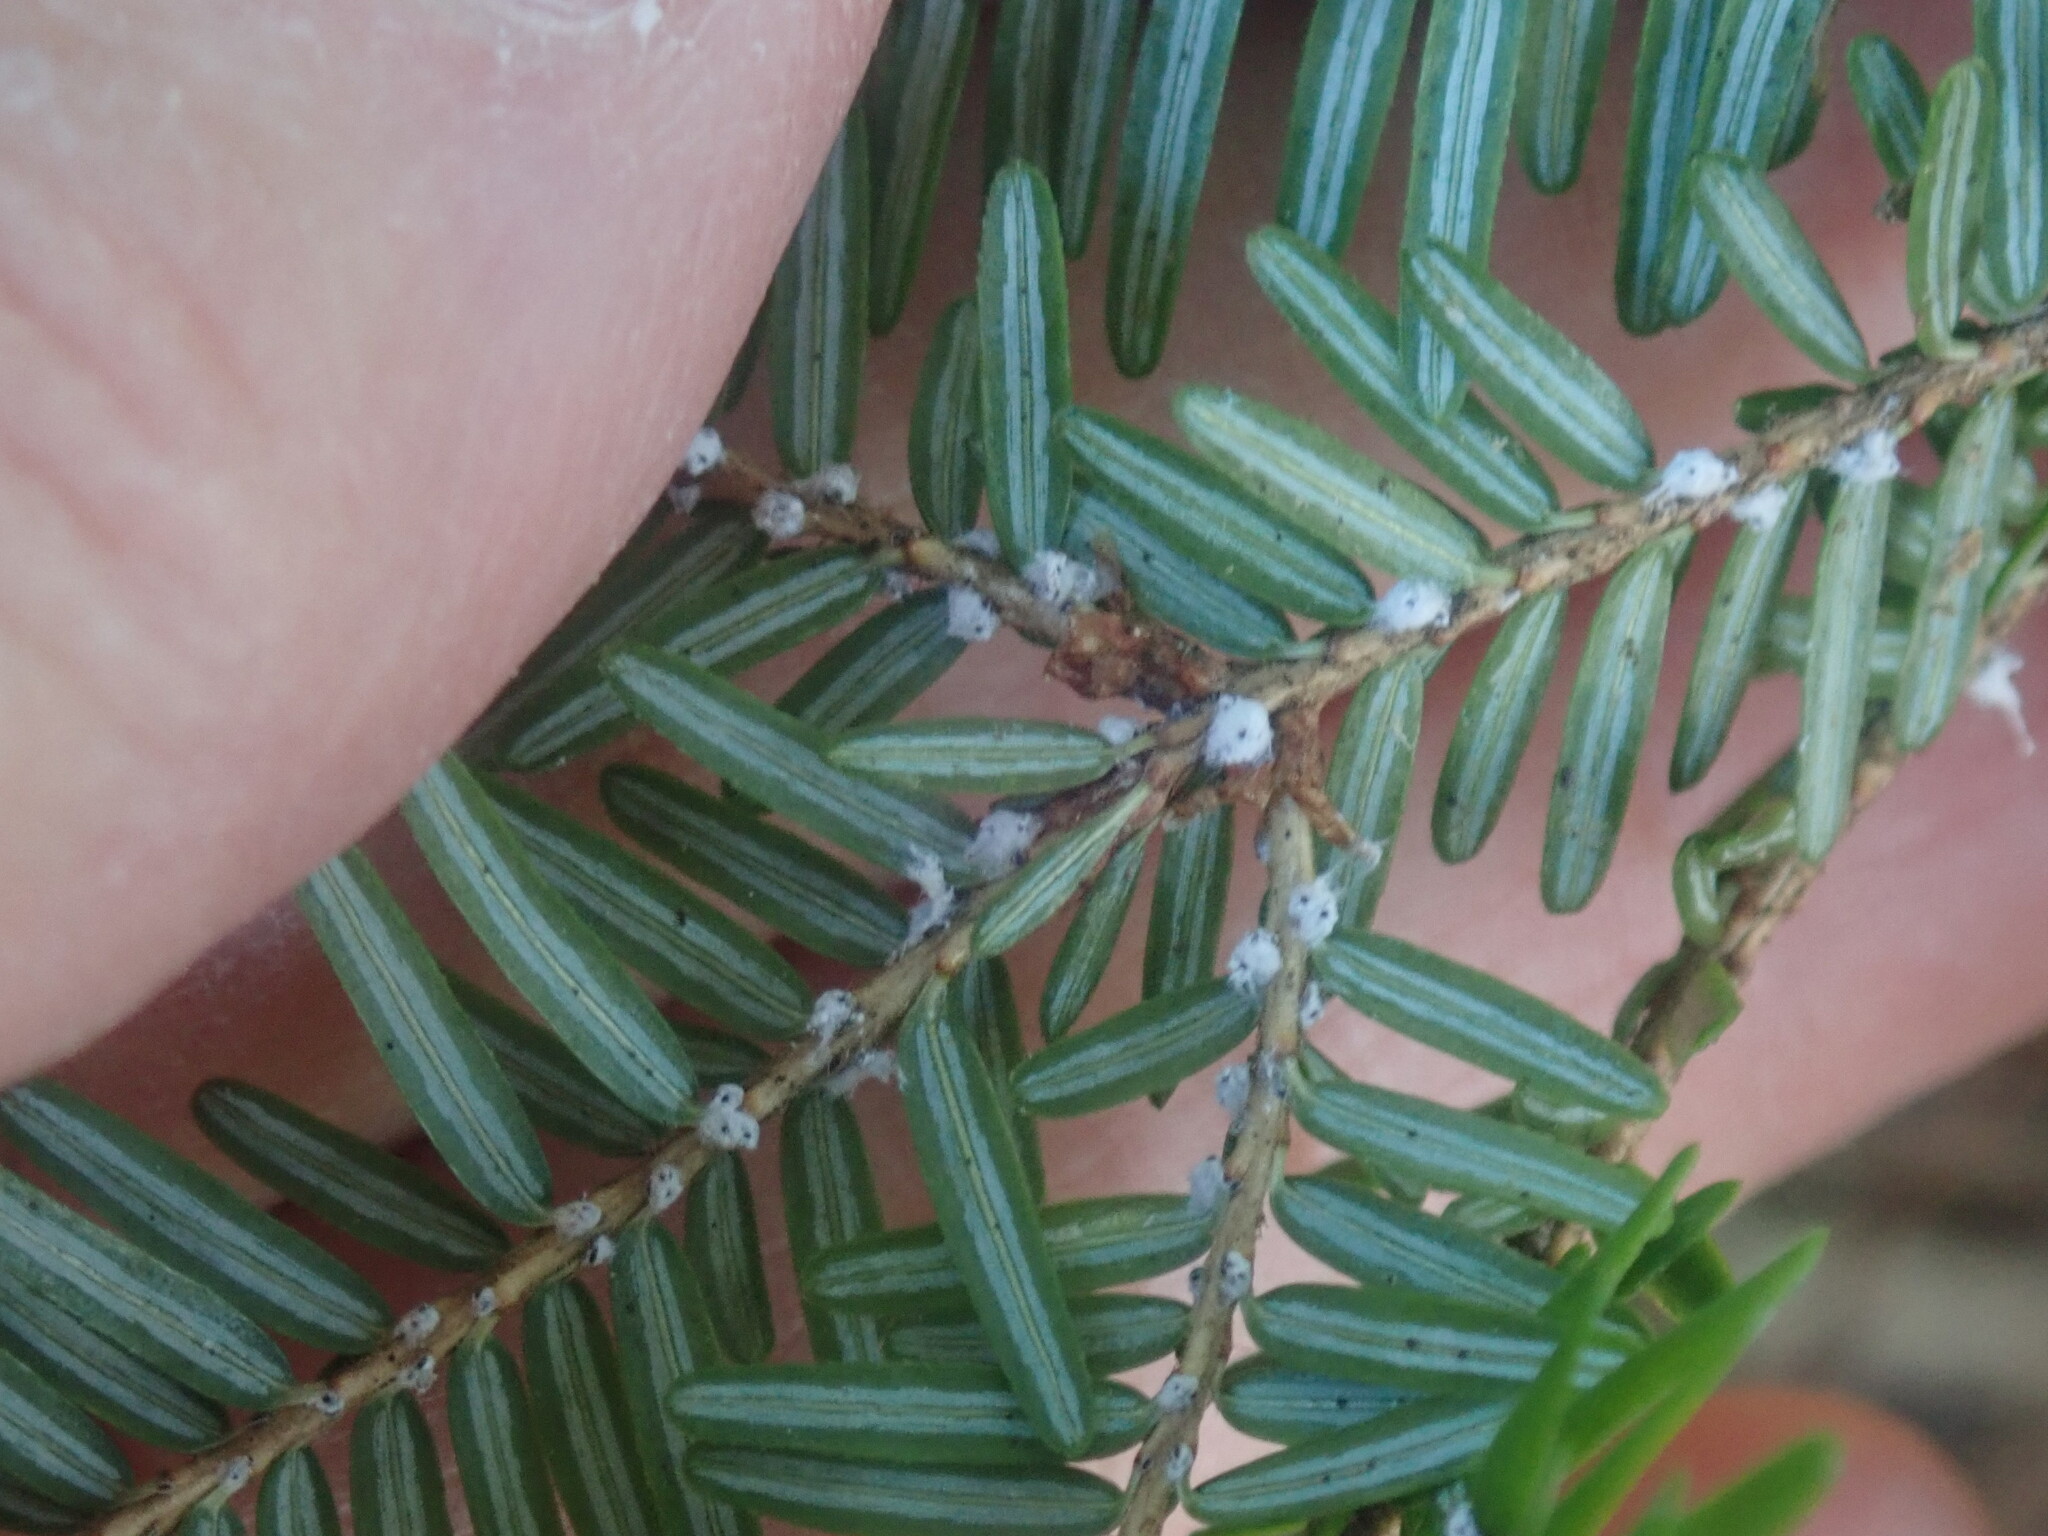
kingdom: Animalia
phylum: Arthropoda
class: Insecta
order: Hemiptera
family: Adelgidae
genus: Adelges
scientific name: Adelges tsugae
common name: Hemlock woolly adelgid
